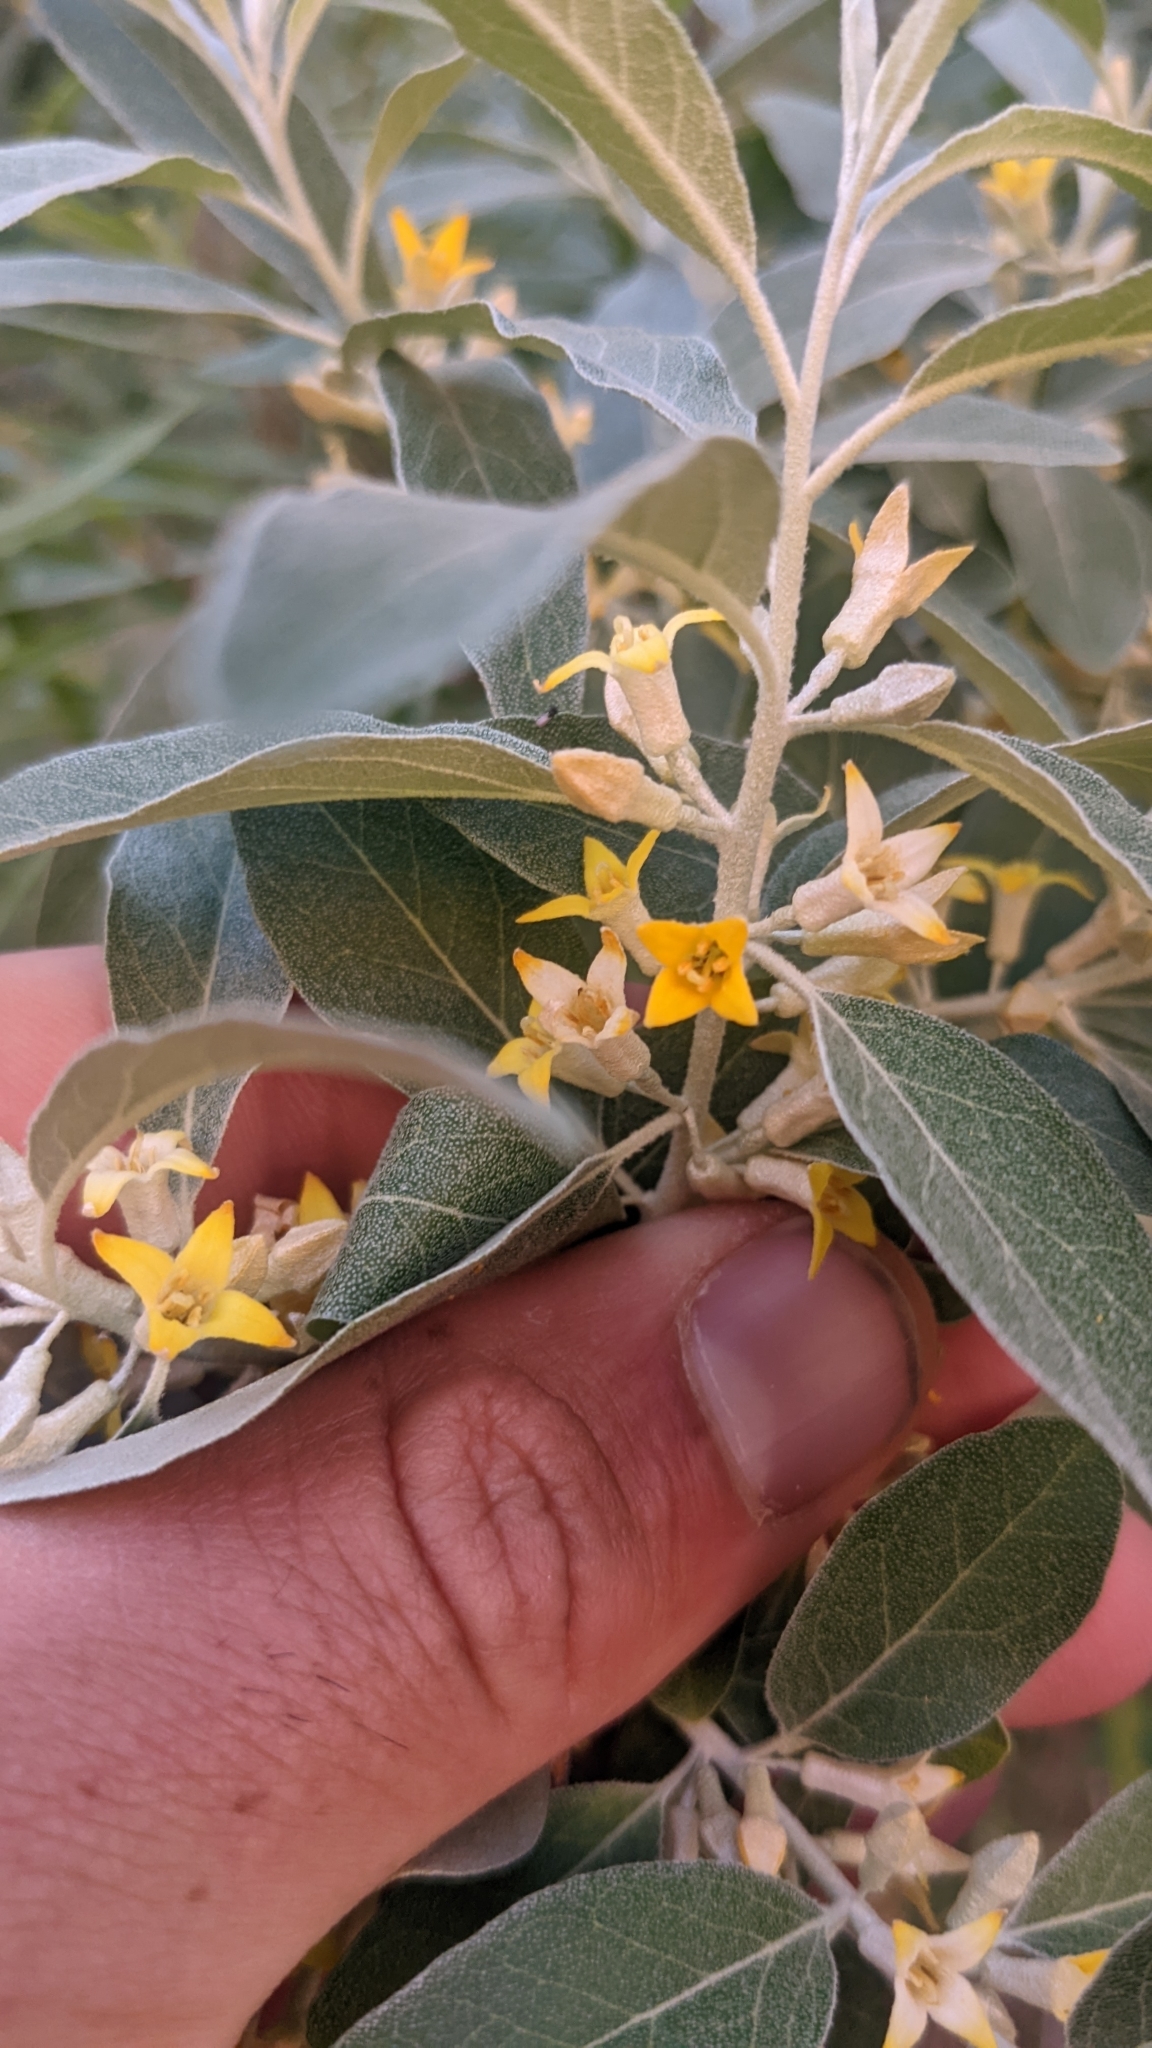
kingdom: Plantae
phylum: Tracheophyta
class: Magnoliopsida
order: Rosales
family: Elaeagnaceae
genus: Elaeagnus
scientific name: Elaeagnus angustifolia
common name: Russian olive
